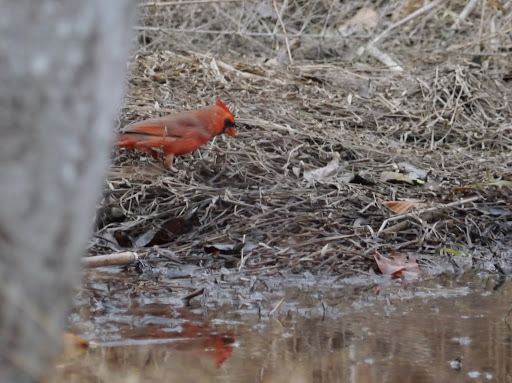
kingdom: Animalia
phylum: Chordata
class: Aves
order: Passeriformes
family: Cardinalidae
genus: Cardinalis
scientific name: Cardinalis cardinalis
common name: Northern cardinal
